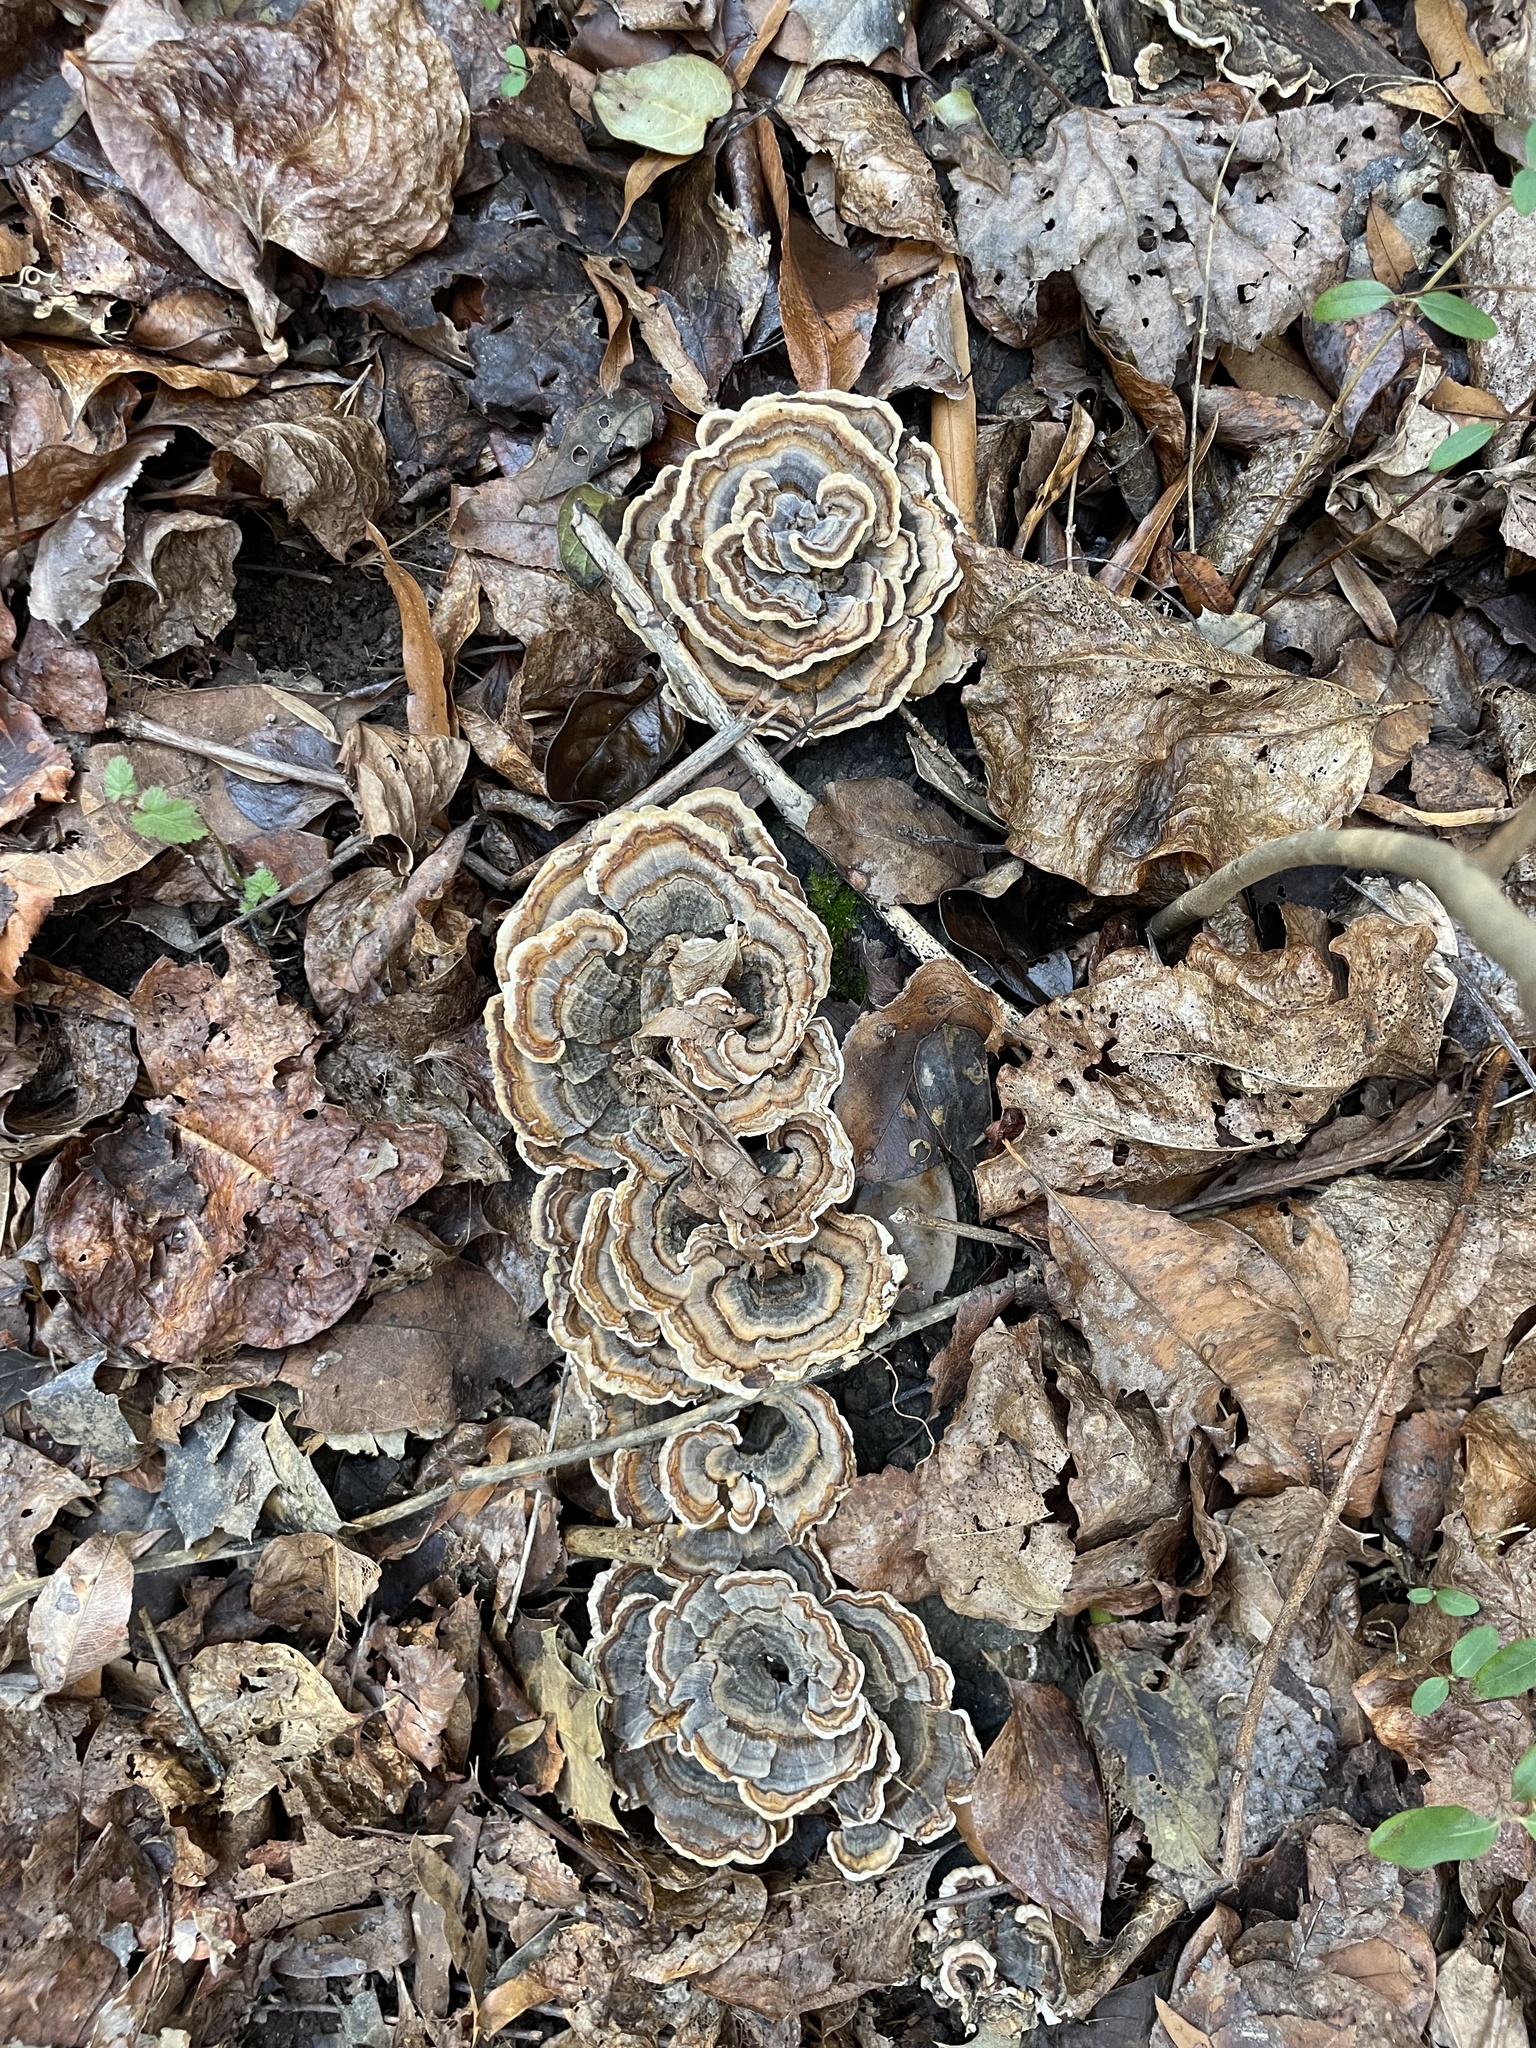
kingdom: Fungi
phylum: Basidiomycota
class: Agaricomycetes
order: Polyporales
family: Polyporaceae
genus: Trametes
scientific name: Trametes versicolor
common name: Turkeytail
